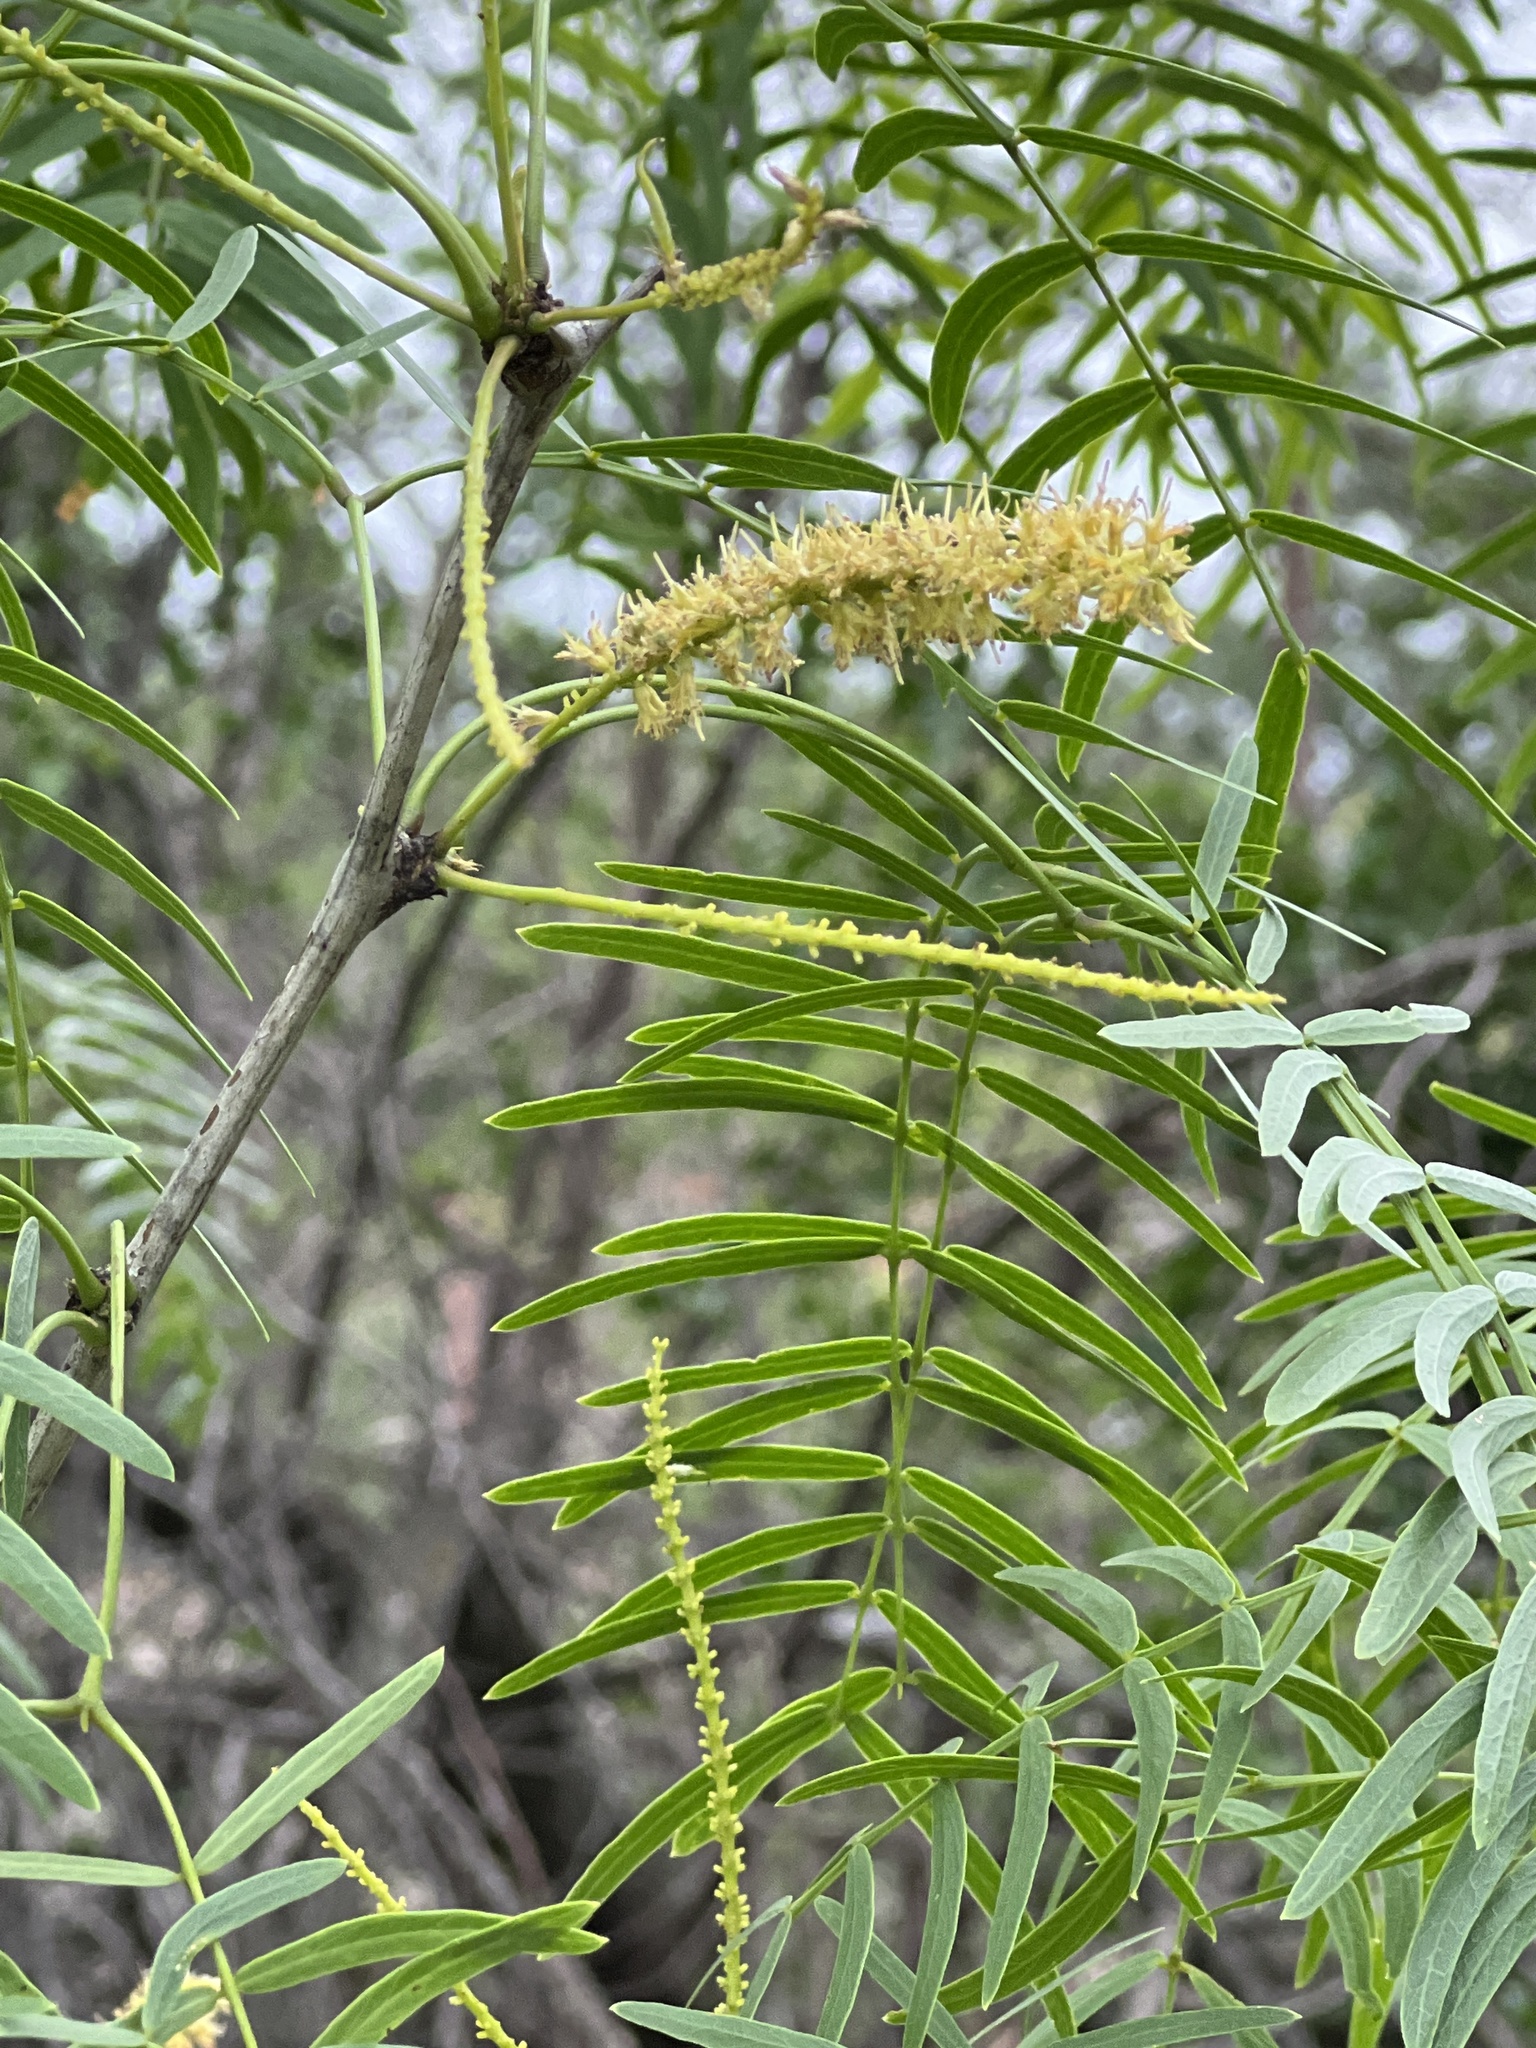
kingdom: Plantae
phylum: Tracheophyta
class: Magnoliopsida
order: Fabales
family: Fabaceae
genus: Prosopis
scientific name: Prosopis glandulosa
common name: Honey mesquite
